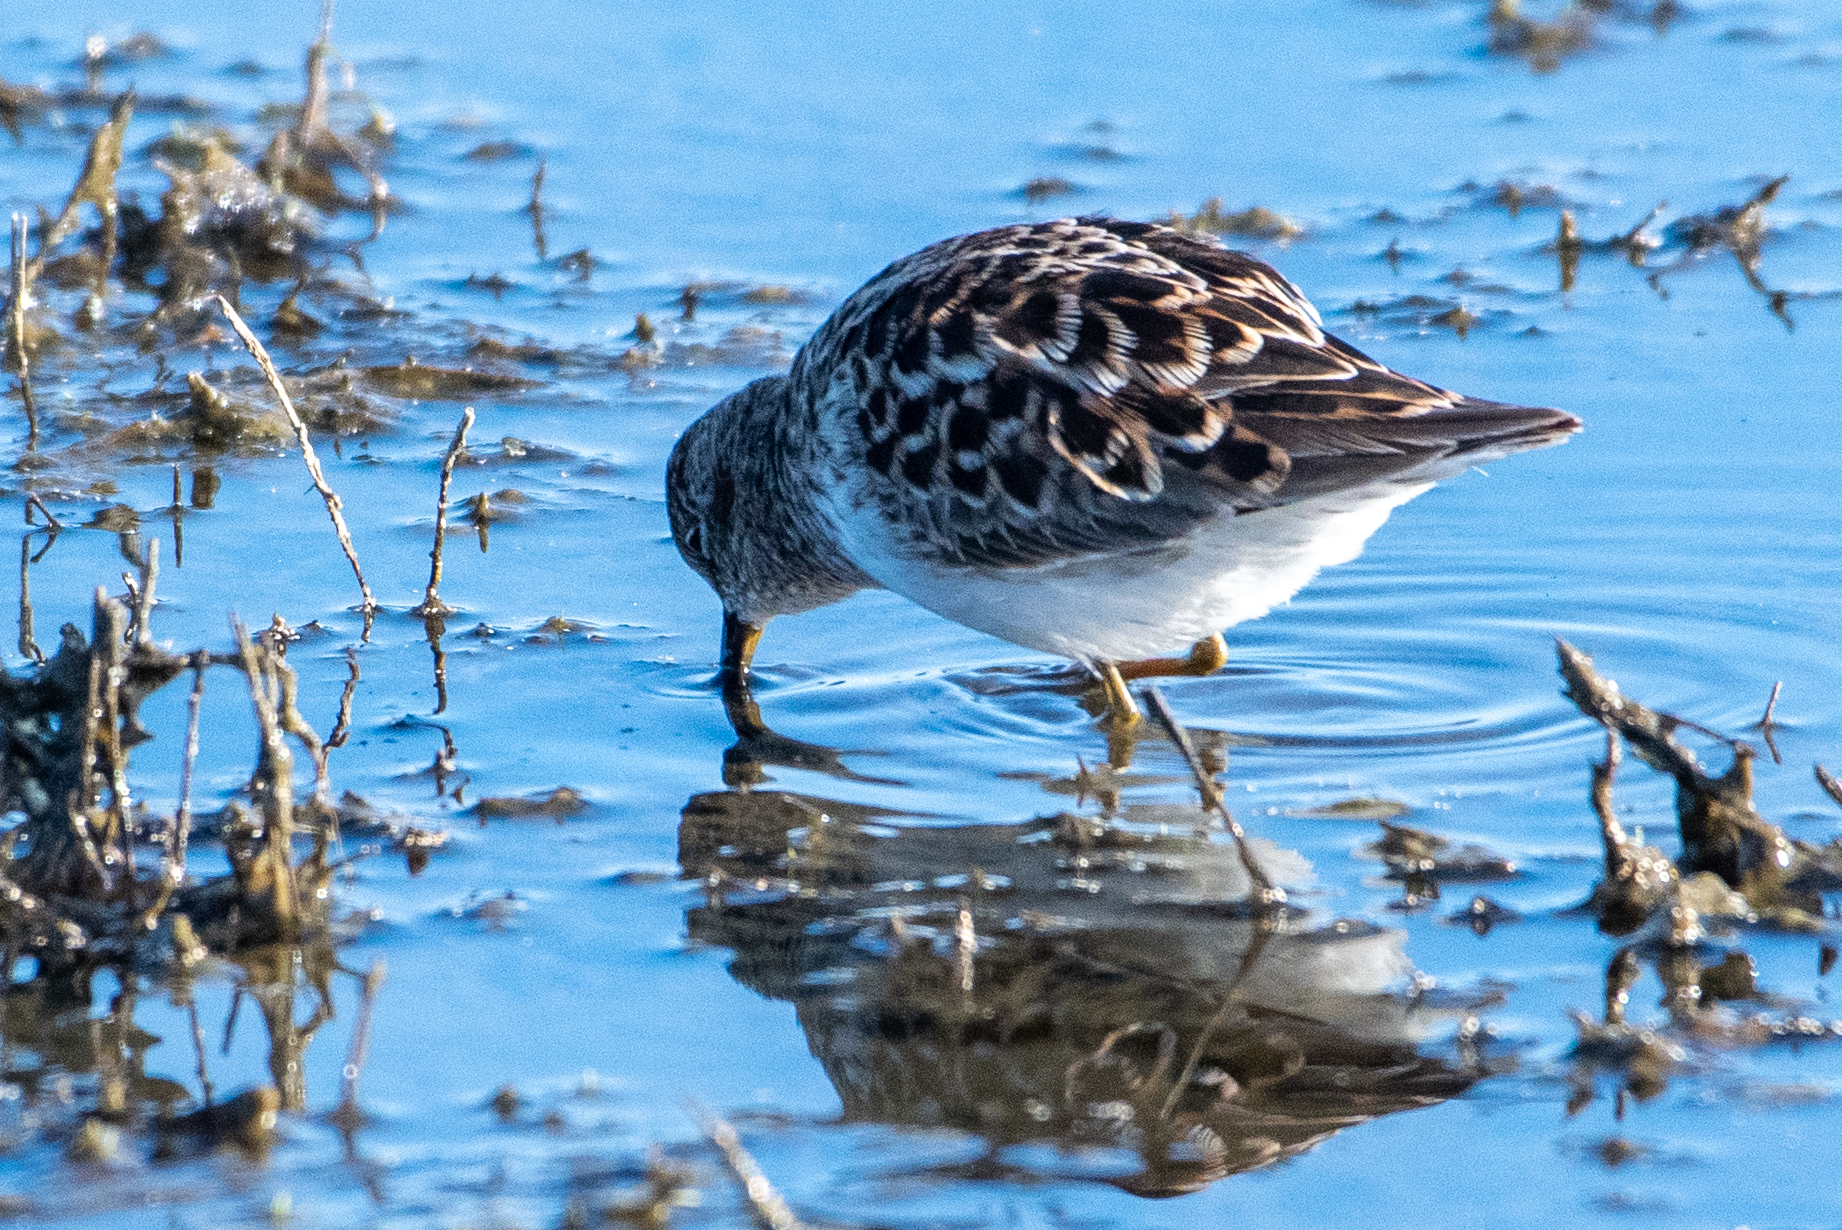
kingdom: Animalia
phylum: Chordata
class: Aves
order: Charadriiformes
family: Scolopacidae
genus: Calidris
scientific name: Calidris minutilla
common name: Least sandpiper
